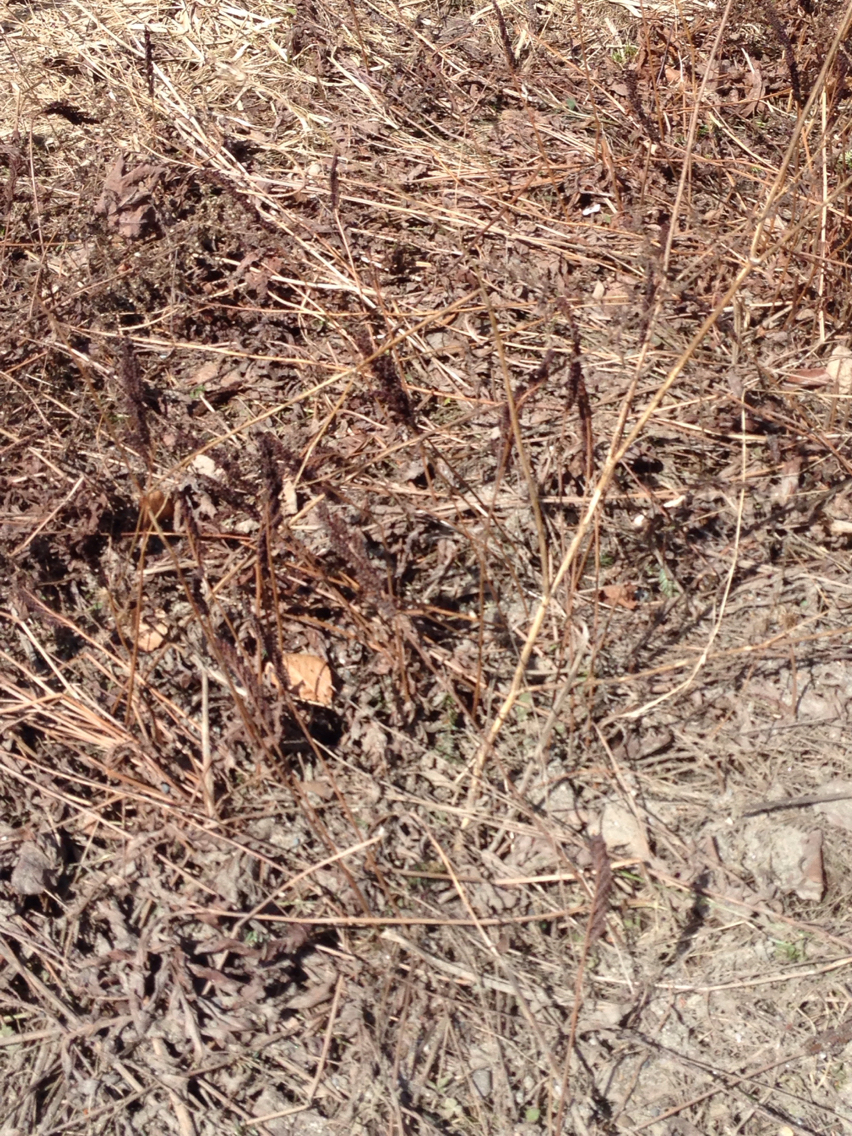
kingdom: Plantae
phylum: Tracheophyta
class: Polypodiopsida
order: Polypodiales
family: Onocleaceae
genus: Onoclea
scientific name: Onoclea sensibilis
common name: Sensitive fern
